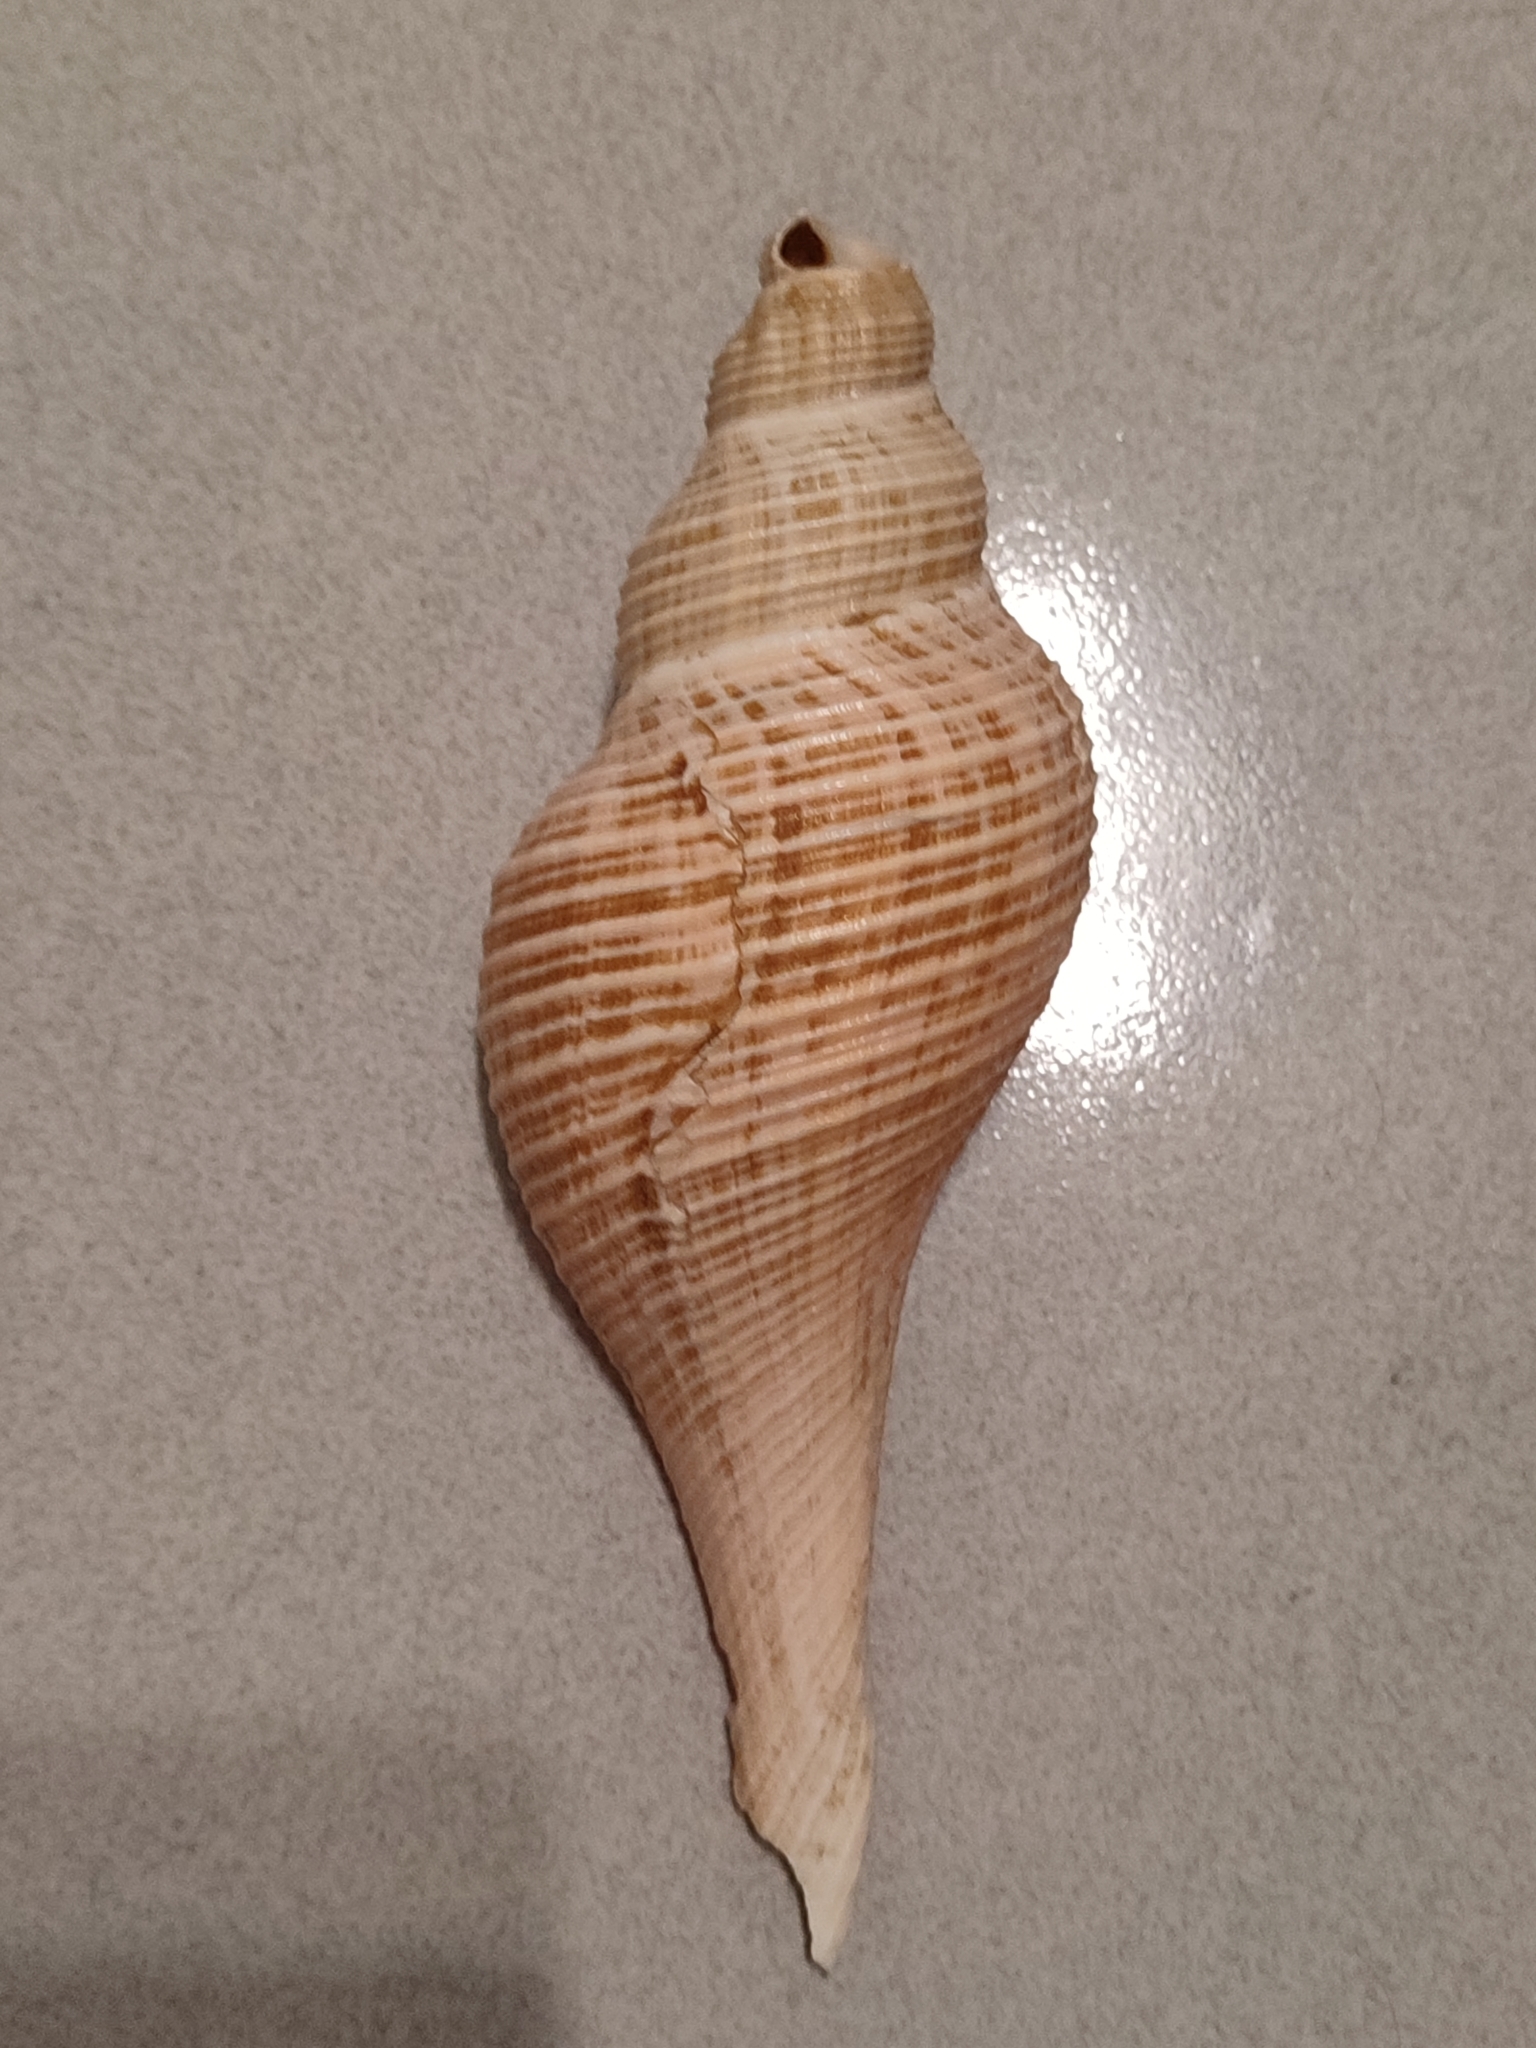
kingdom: Animalia
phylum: Mollusca
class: Gastropoda
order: Neogastropoda
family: Melongenidae
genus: Hemifusus
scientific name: Hemifusus colosseus
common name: Colossal false fusus
